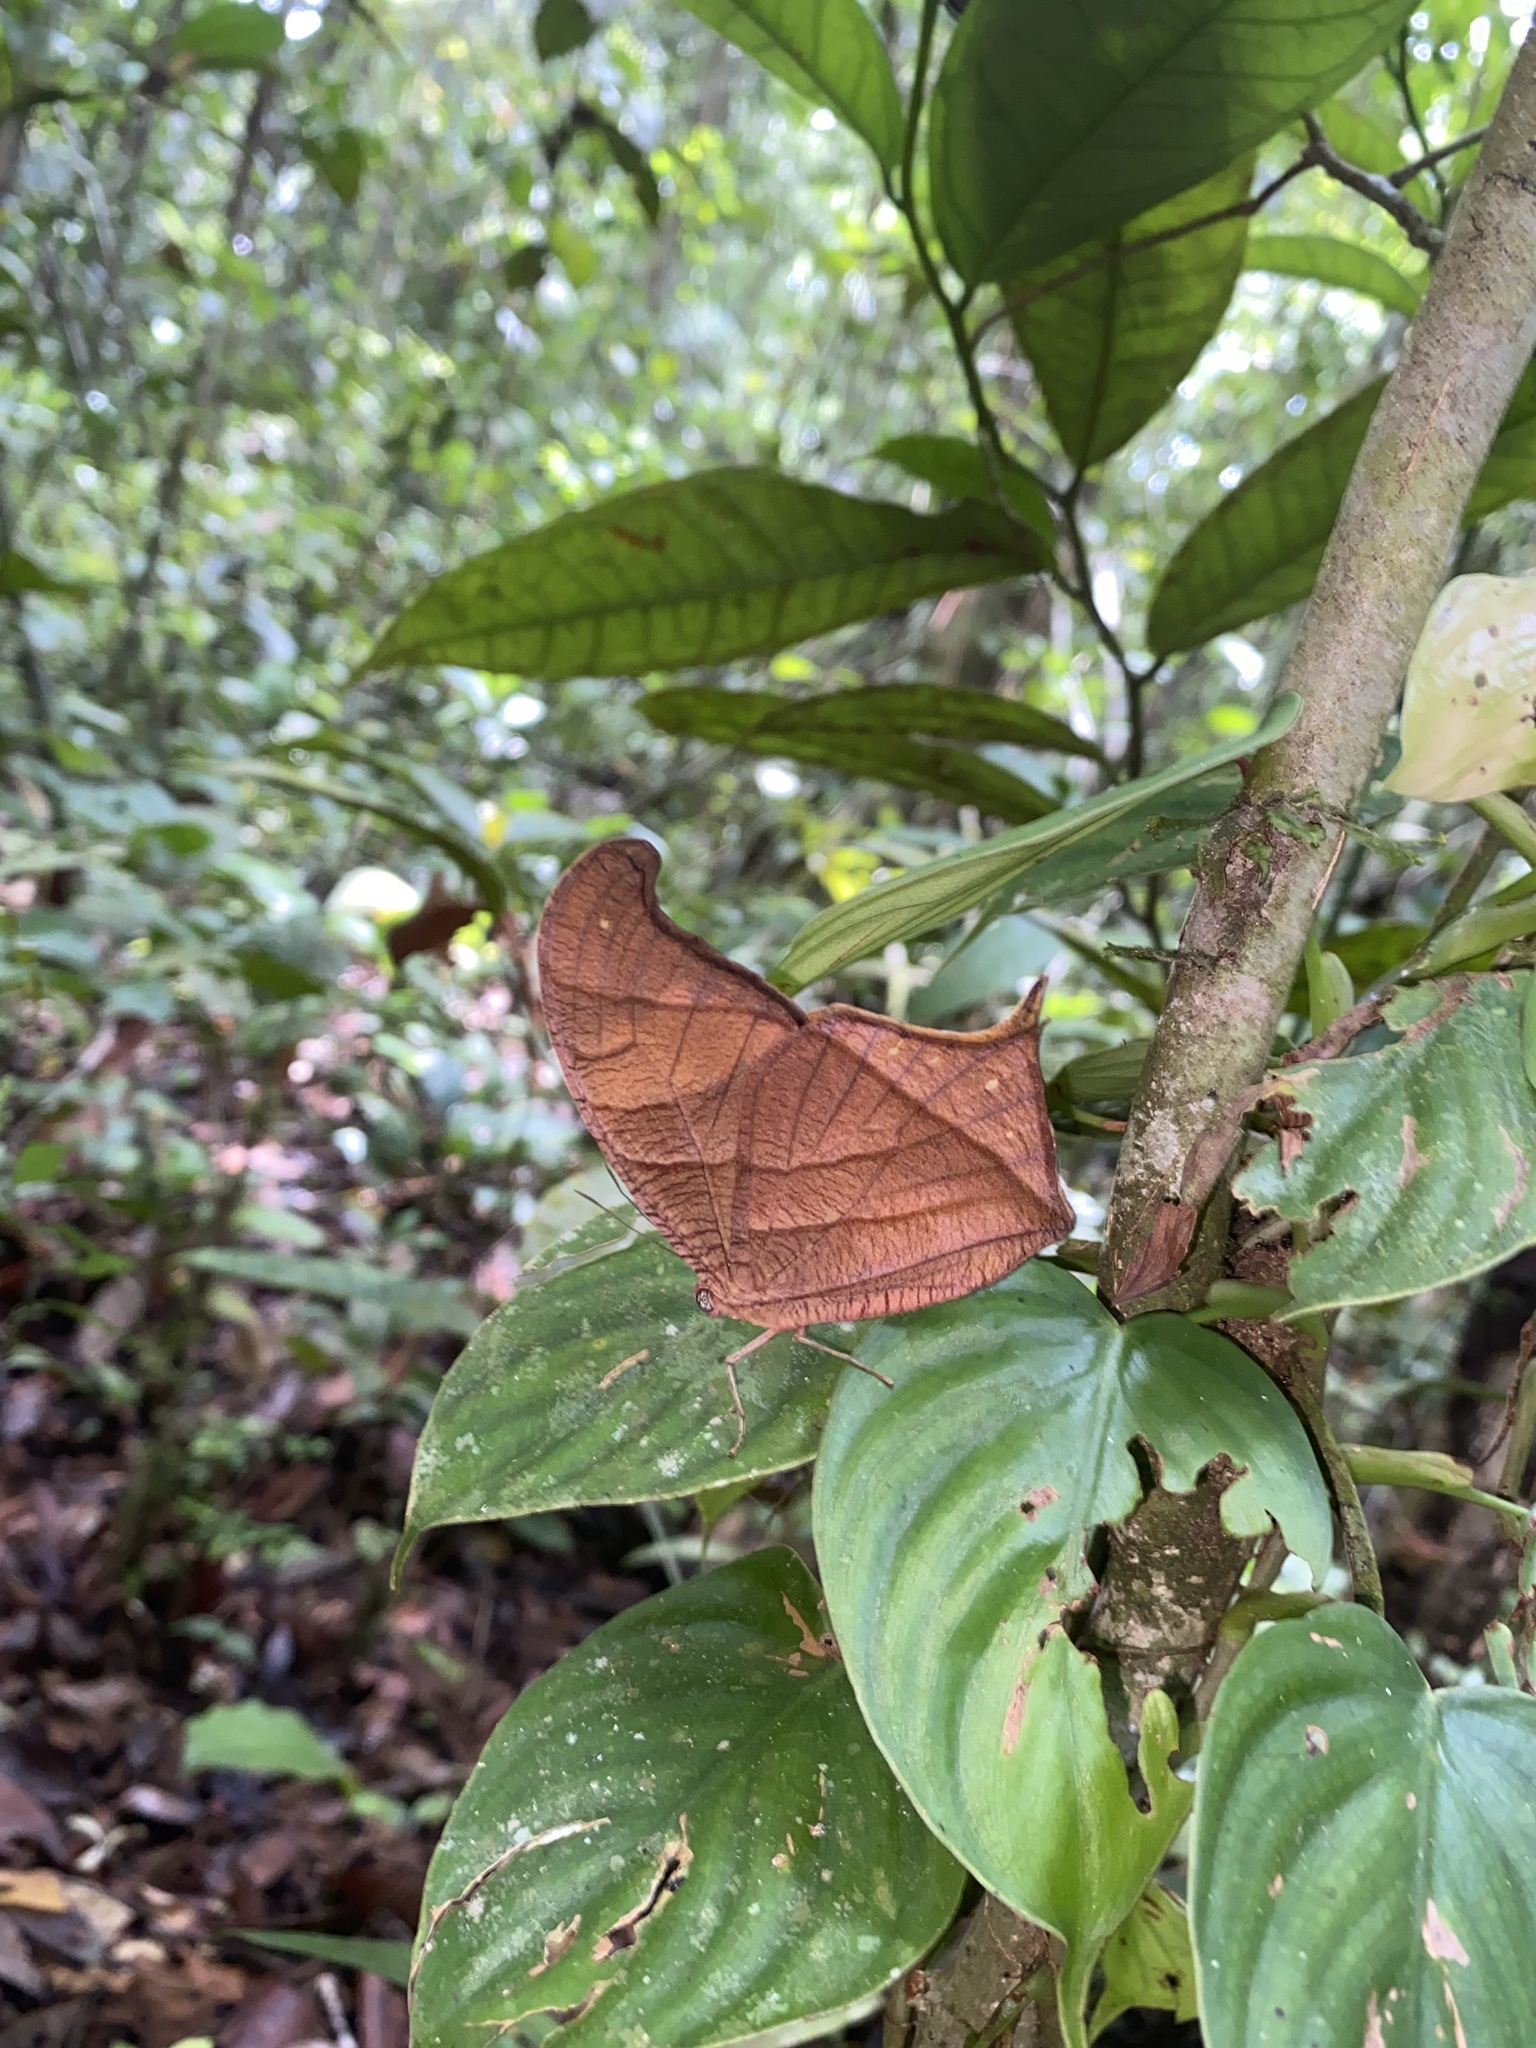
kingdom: Animalia
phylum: Arthropoda
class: Insecta
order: Lepidoptera
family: Nymphalidae
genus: Caerois
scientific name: Caerois chorinaeus
